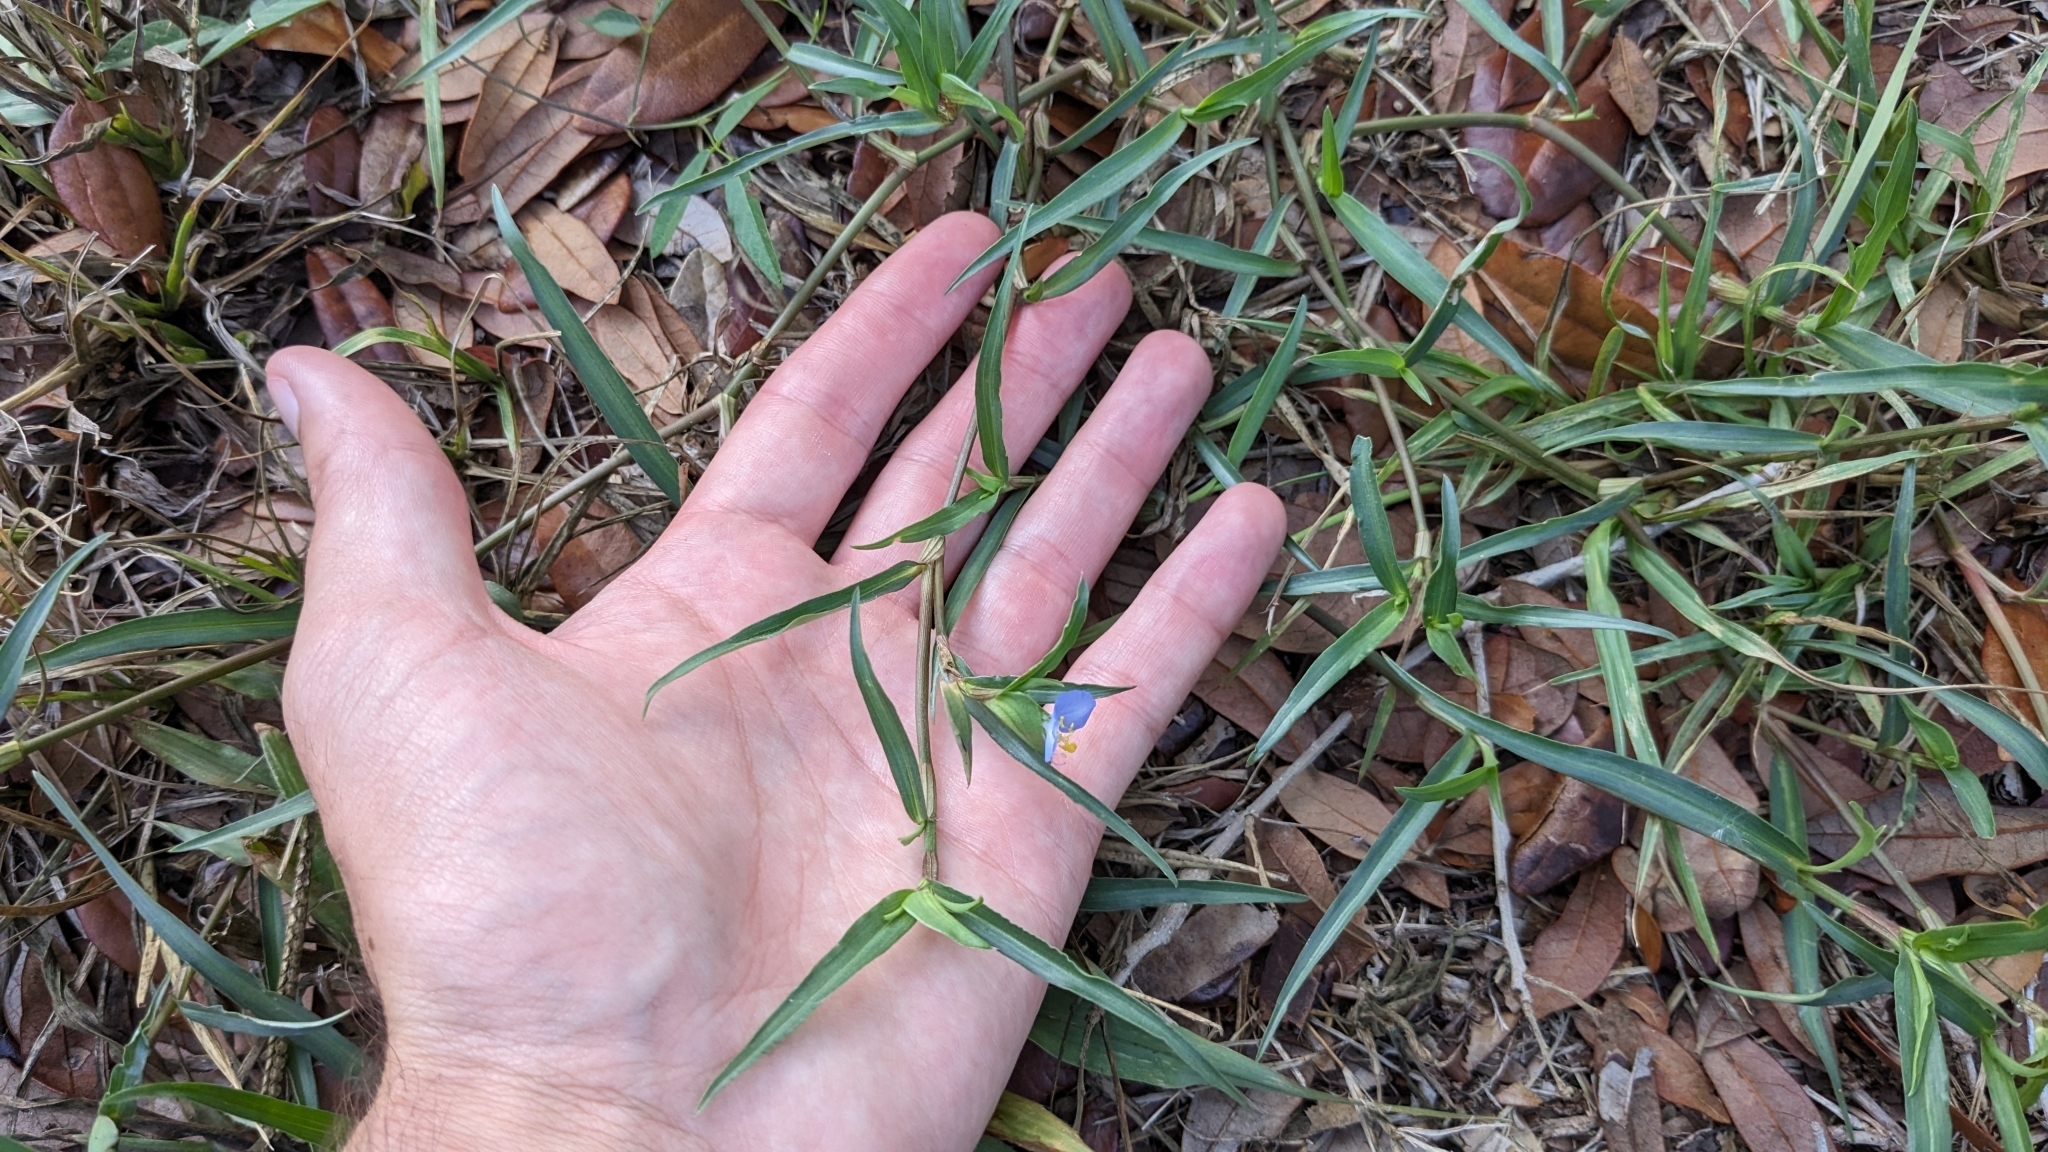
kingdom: Plantae
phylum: Tracheophyta
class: Liliopsida
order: Commelinales
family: Commelinaceae
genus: Commelina
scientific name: Commelina erecta
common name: Blousel blommetjie
